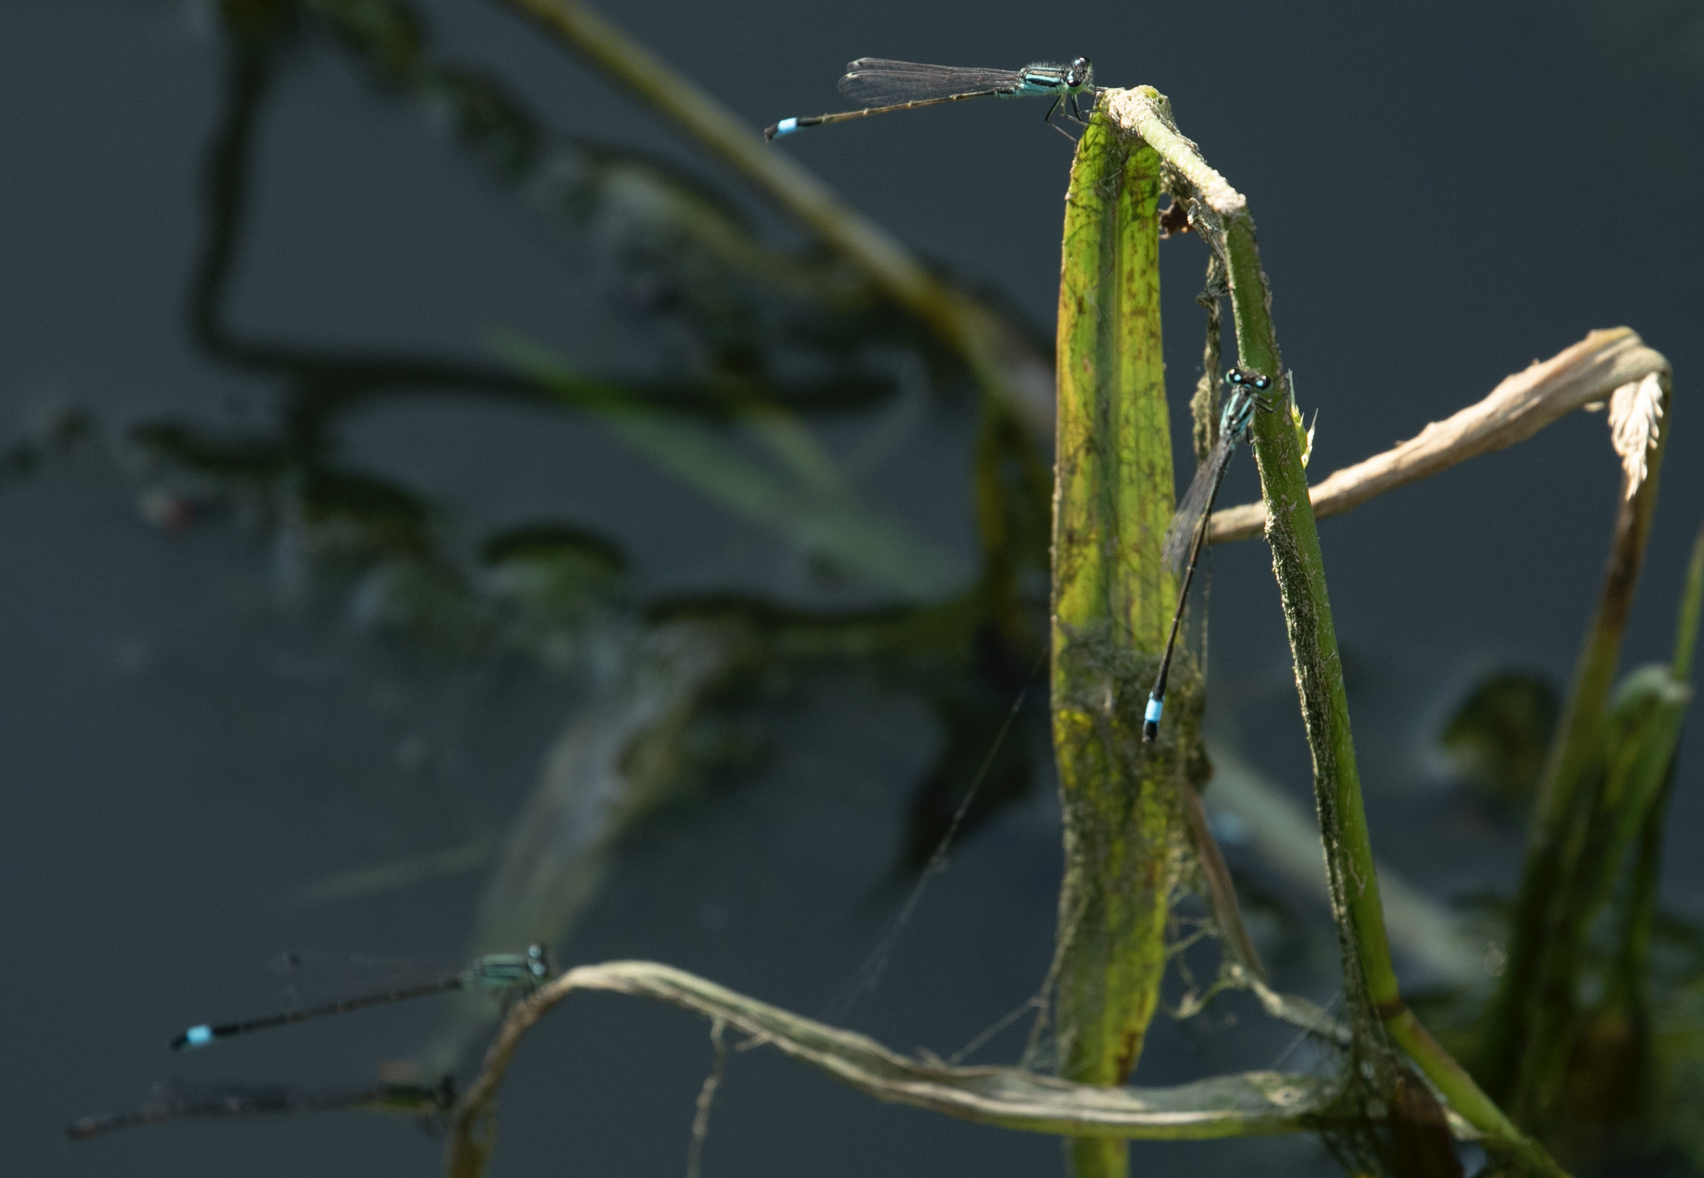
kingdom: Animalia
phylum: Arthropoda
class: Insecta
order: Odonata
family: Coenagrionidae
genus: Ischnura
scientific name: Ischnura elegans
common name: Blue-tailed damselfly
